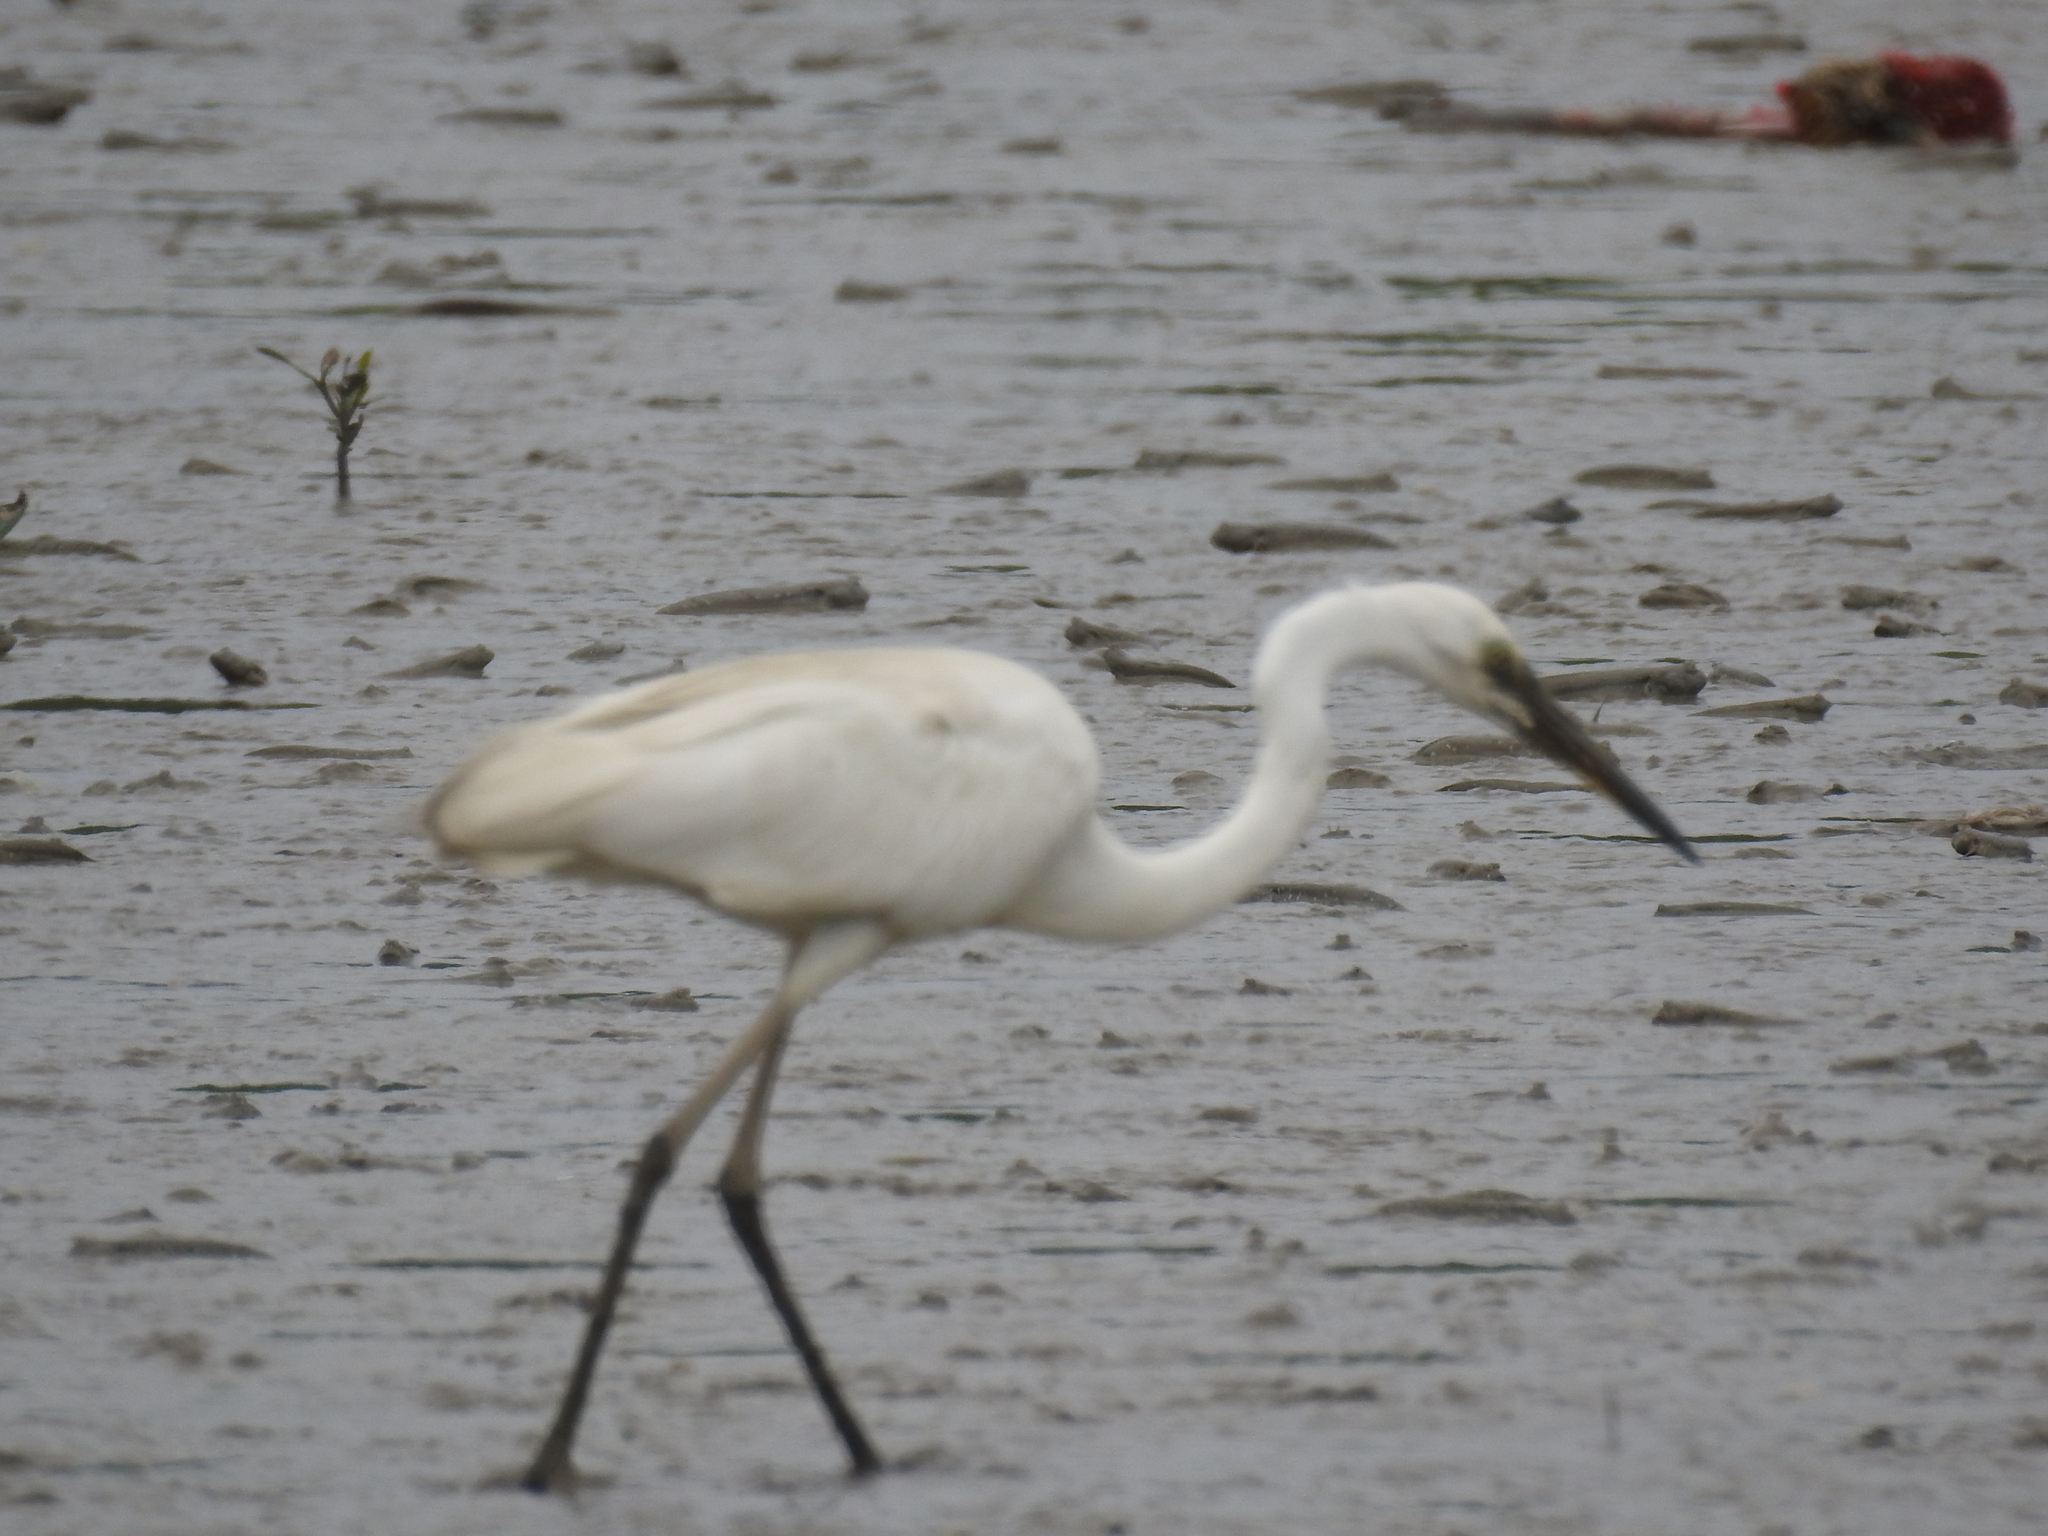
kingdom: Animalia
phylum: Chordata
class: Aves
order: Pelecaniformes
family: Ardeidae
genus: Egretta
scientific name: Egretta garzetta
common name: Little egret
